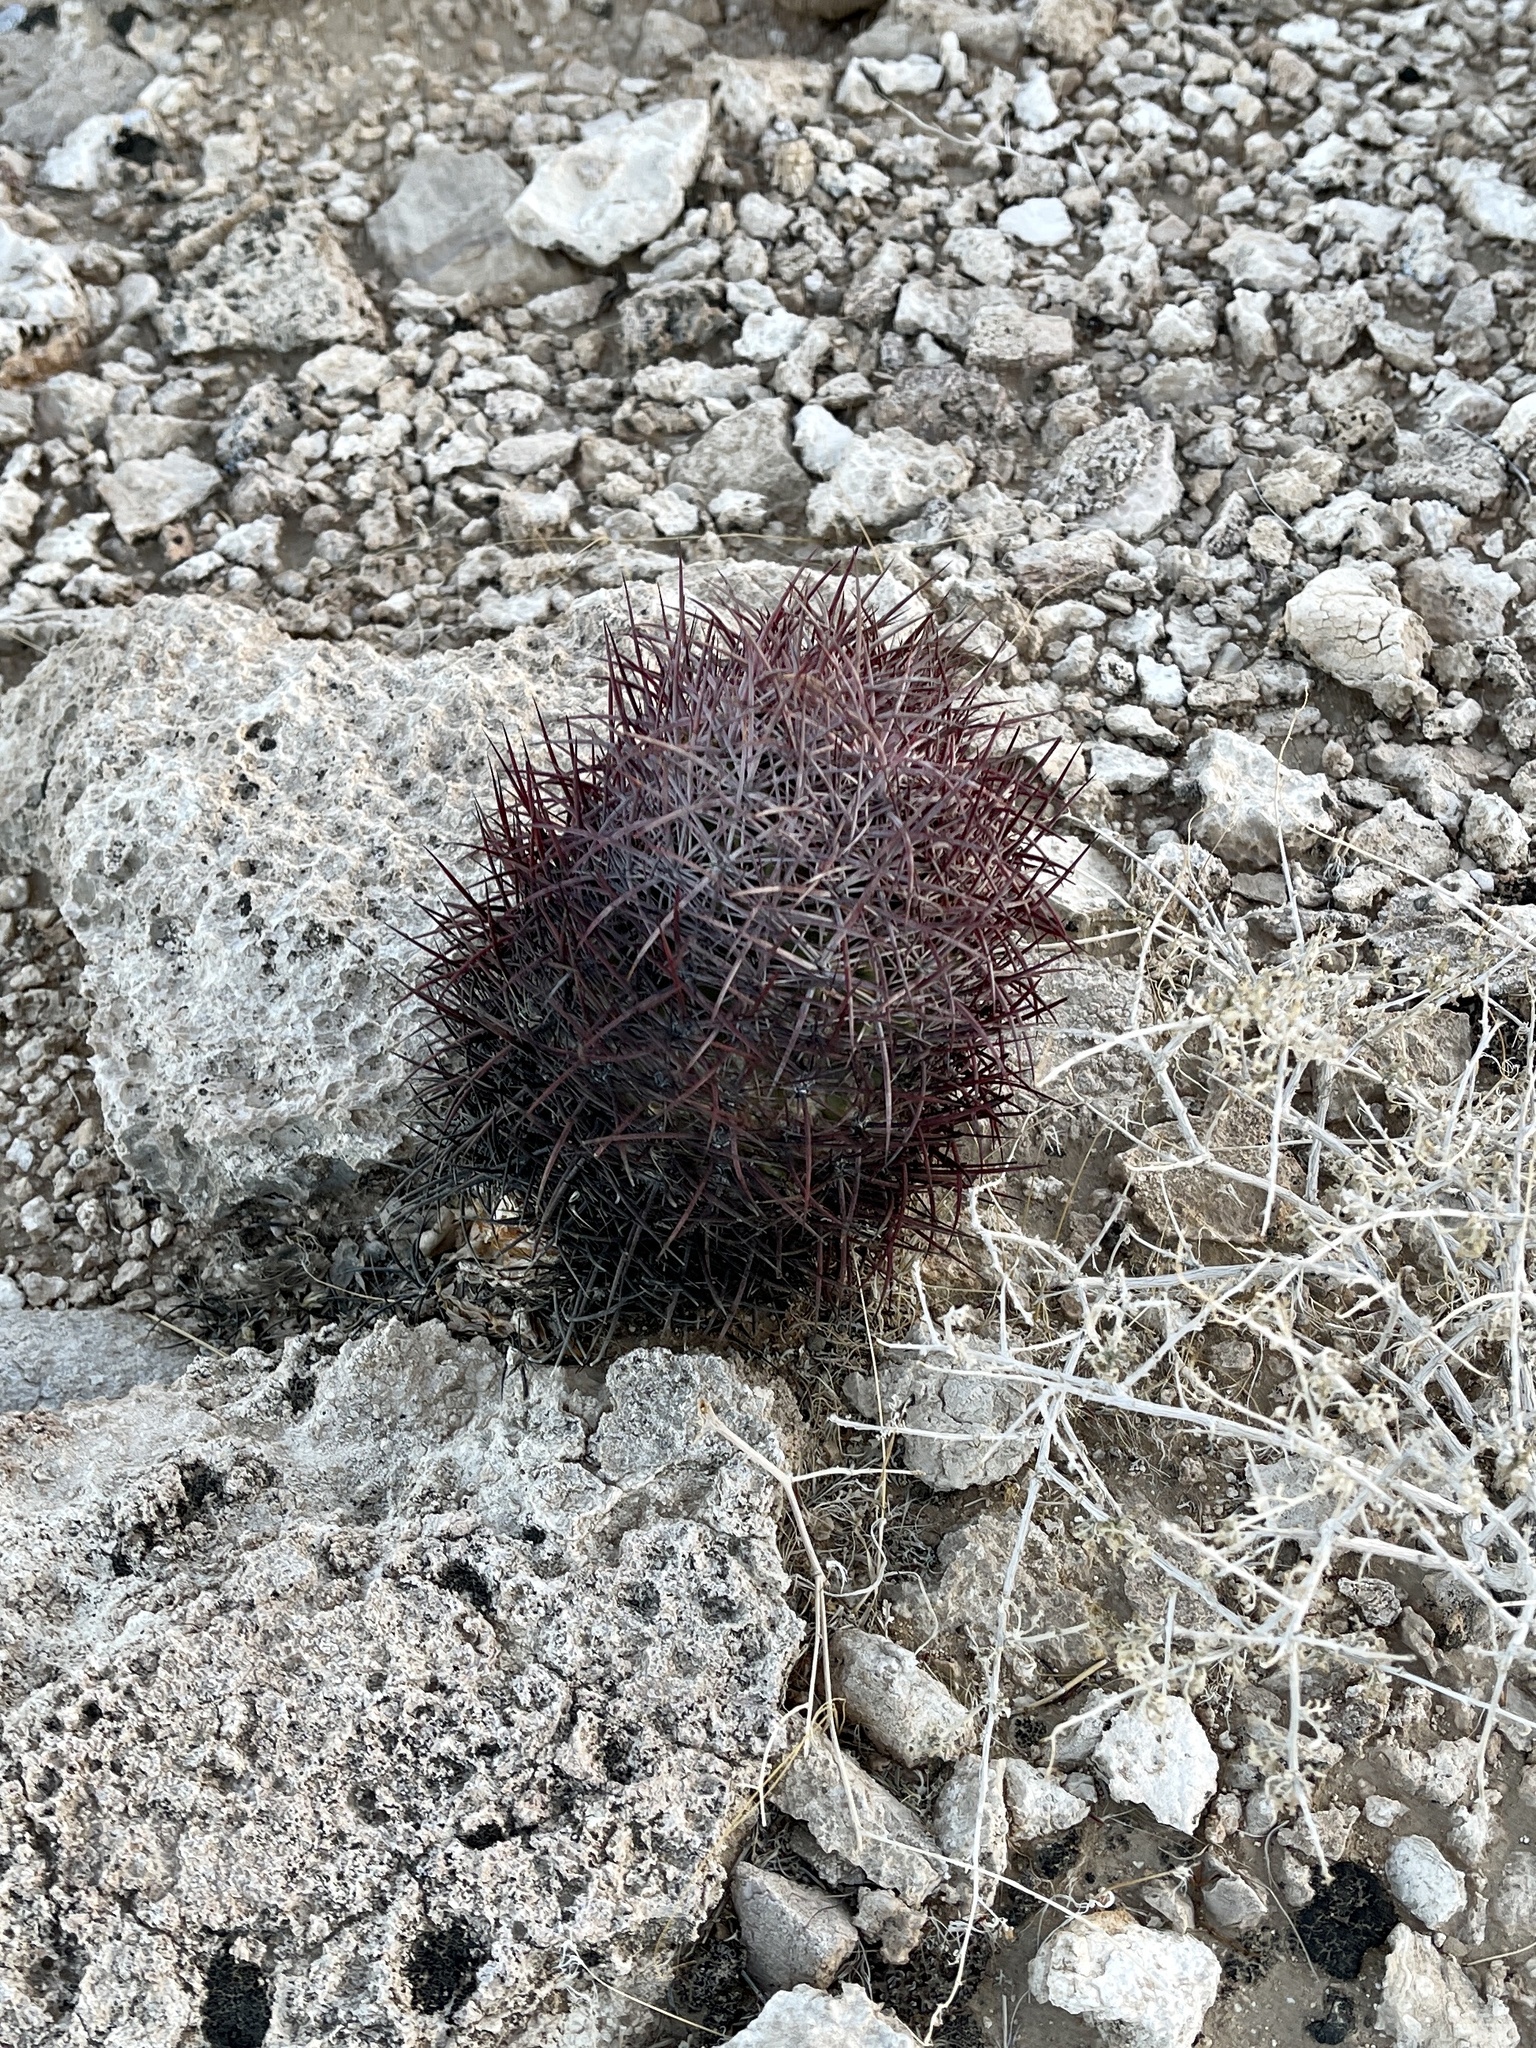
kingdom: Plantae
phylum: Tracheophyta
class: Magnoliopsida
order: Caryophyllales
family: Cactaceae
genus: Sclerocactus
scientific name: Sclerocactus johnsonii
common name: Eight-spine fishhook cactus
